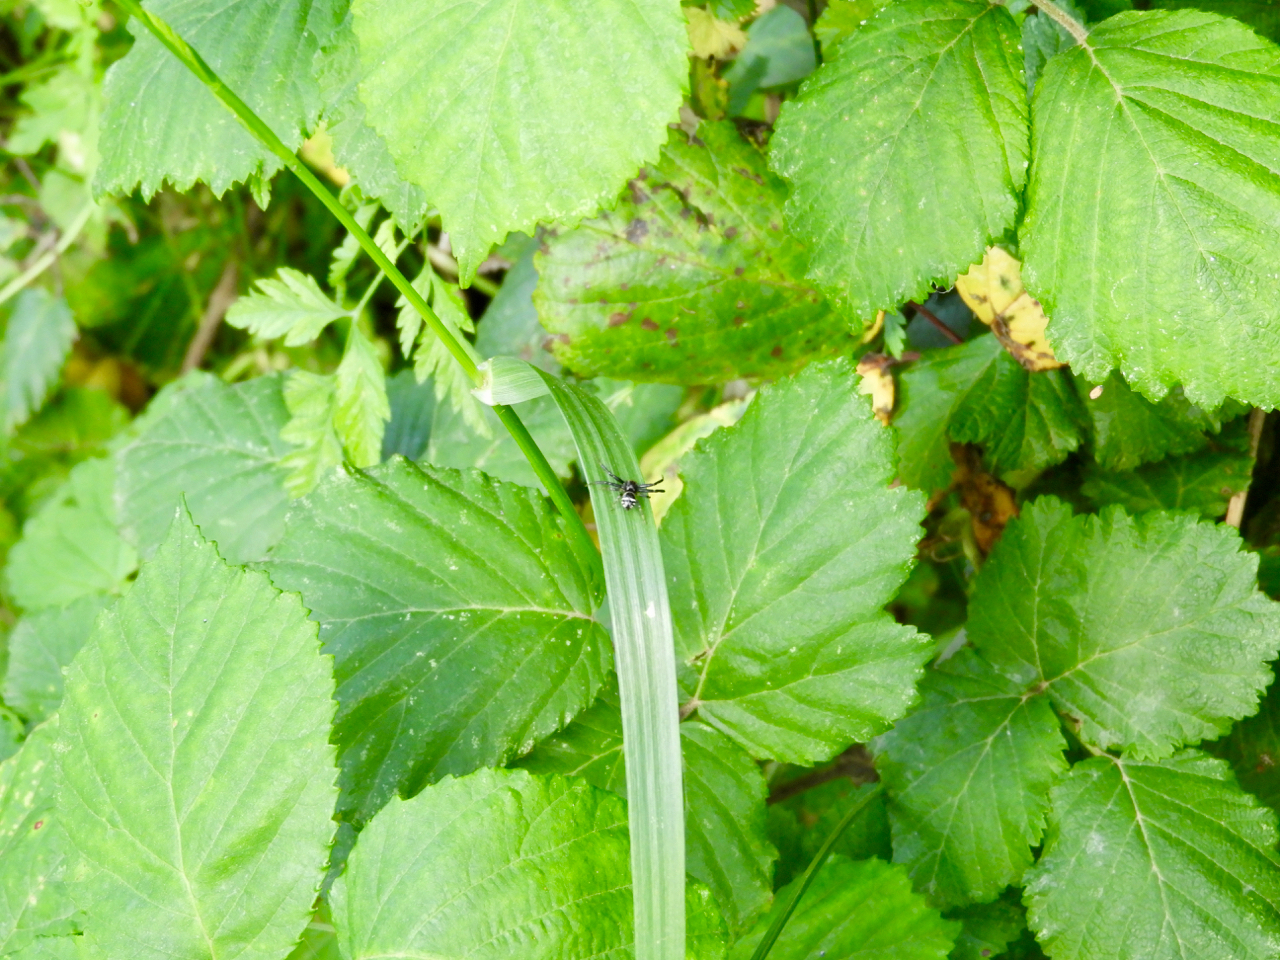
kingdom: Animalia
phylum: Arthropoda
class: Arachnida
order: Araneae
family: Thomisidae
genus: Synema
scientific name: Synema globosum
